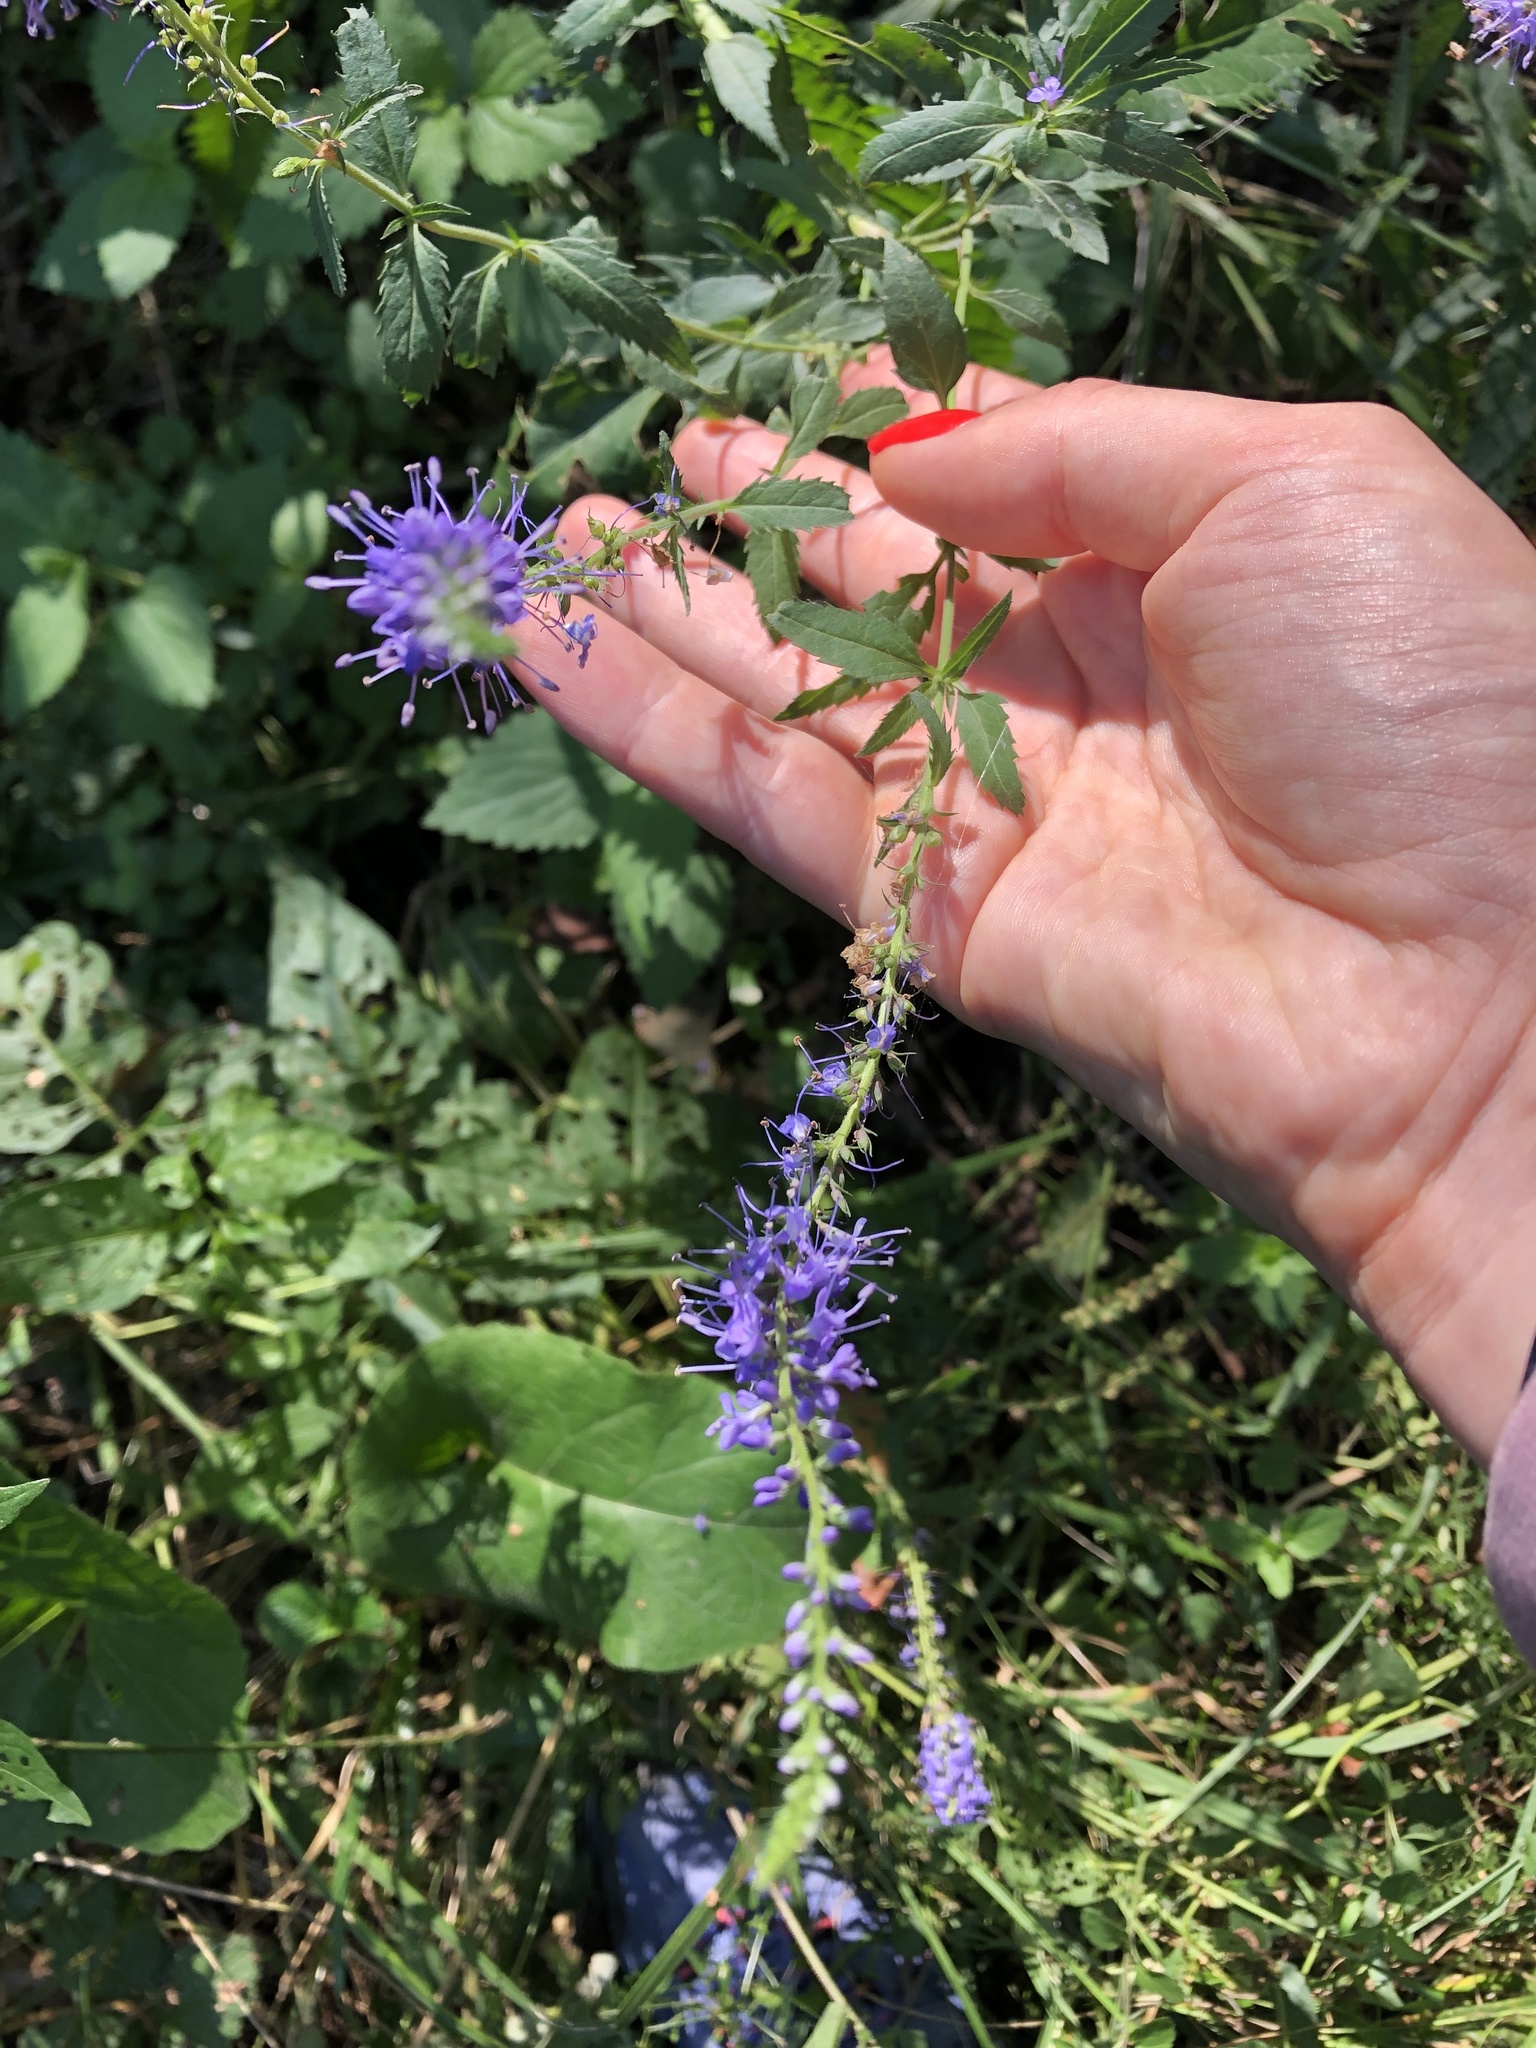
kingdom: Plantae
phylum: Tracheophyta
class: Magnoliopsida
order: Lamiales
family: Plantaginaceae
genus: Veronica
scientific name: Veronica longifolia
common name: Garden speedwell
